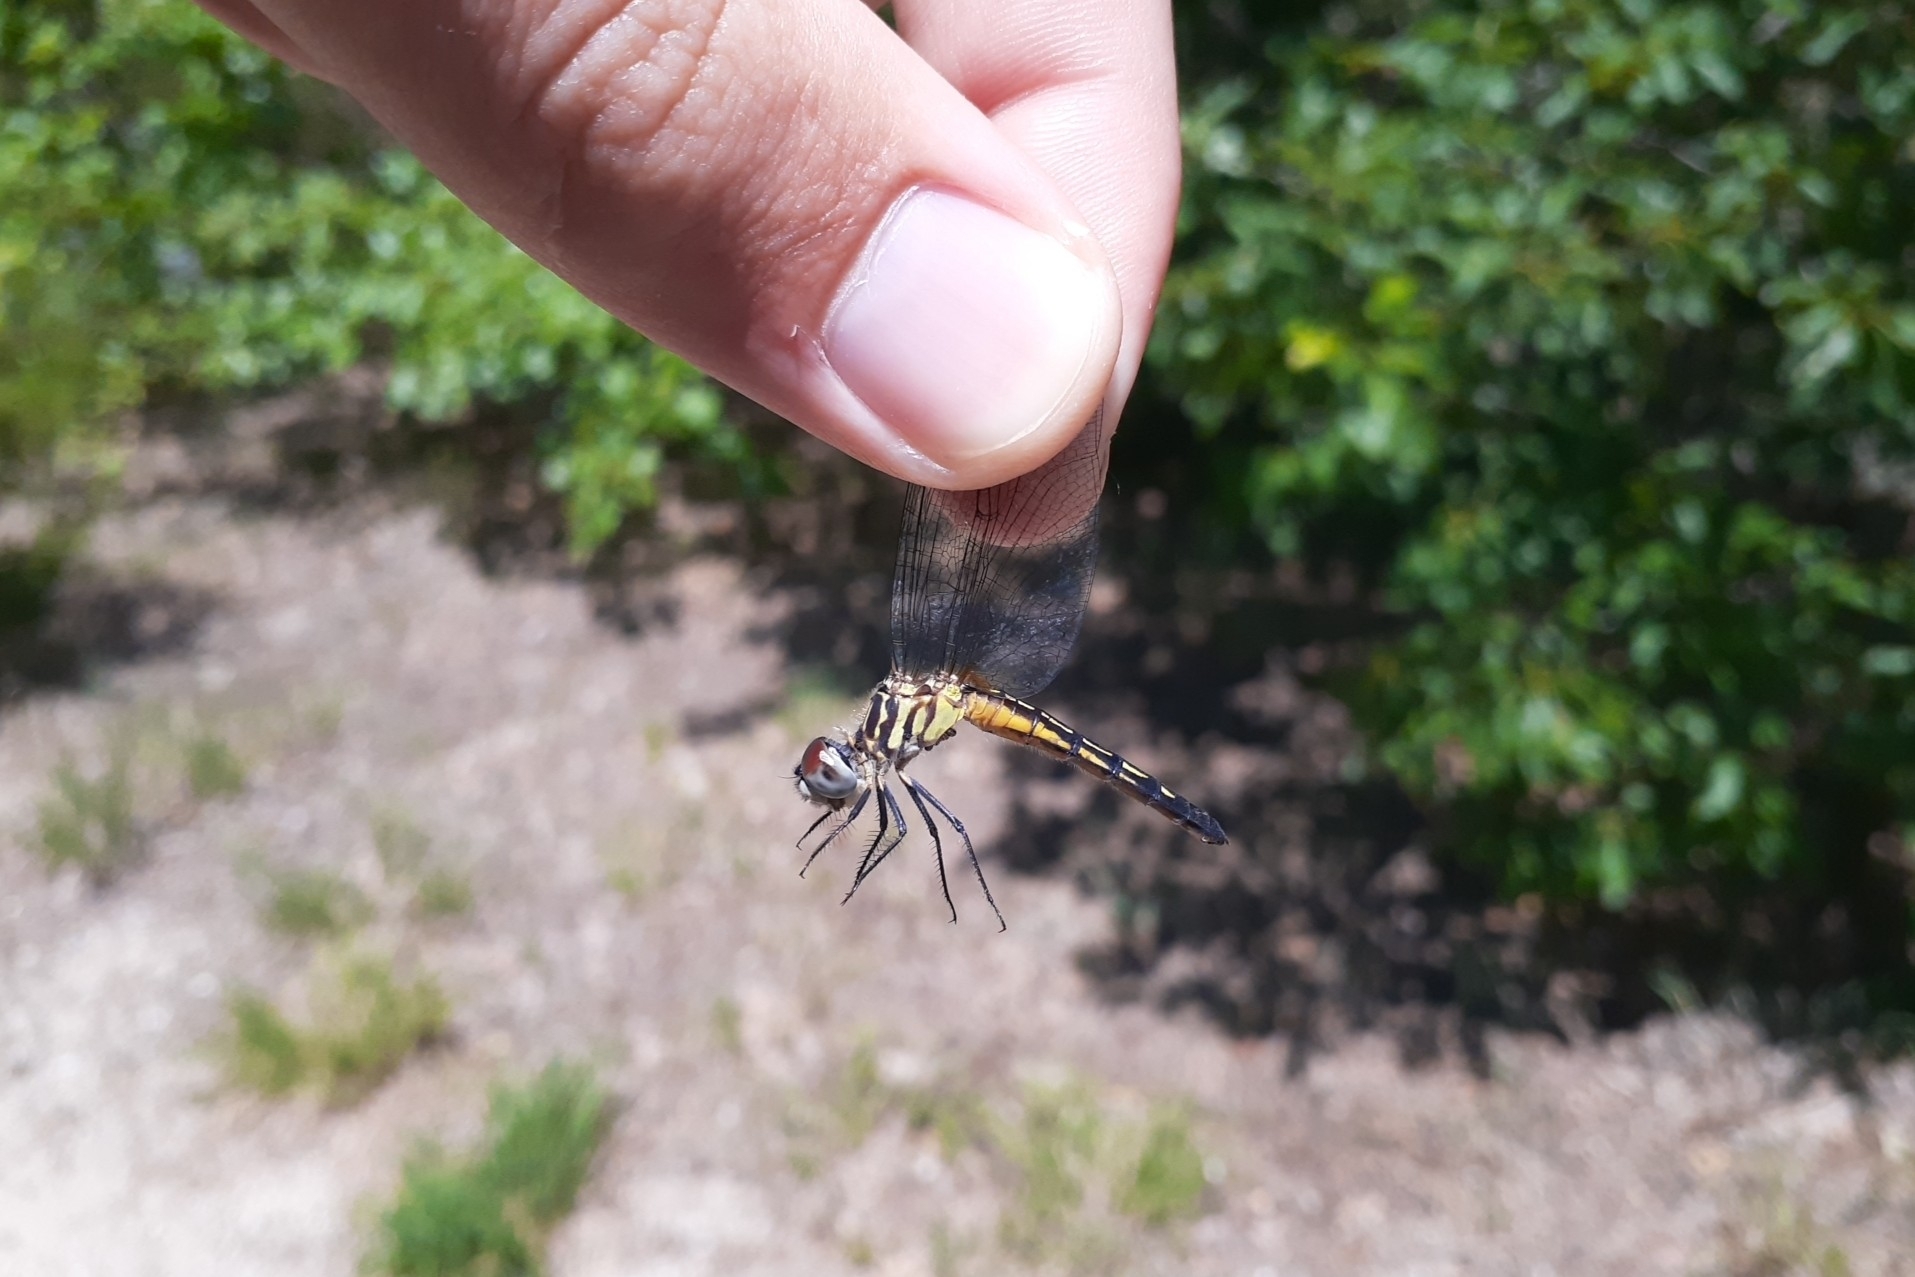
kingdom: Animalia
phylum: Arthropoda
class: Insecta
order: Odonata
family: Libellulidae
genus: Pachydiplax
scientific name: Pachydiplax longipennis
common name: Blue dasher
